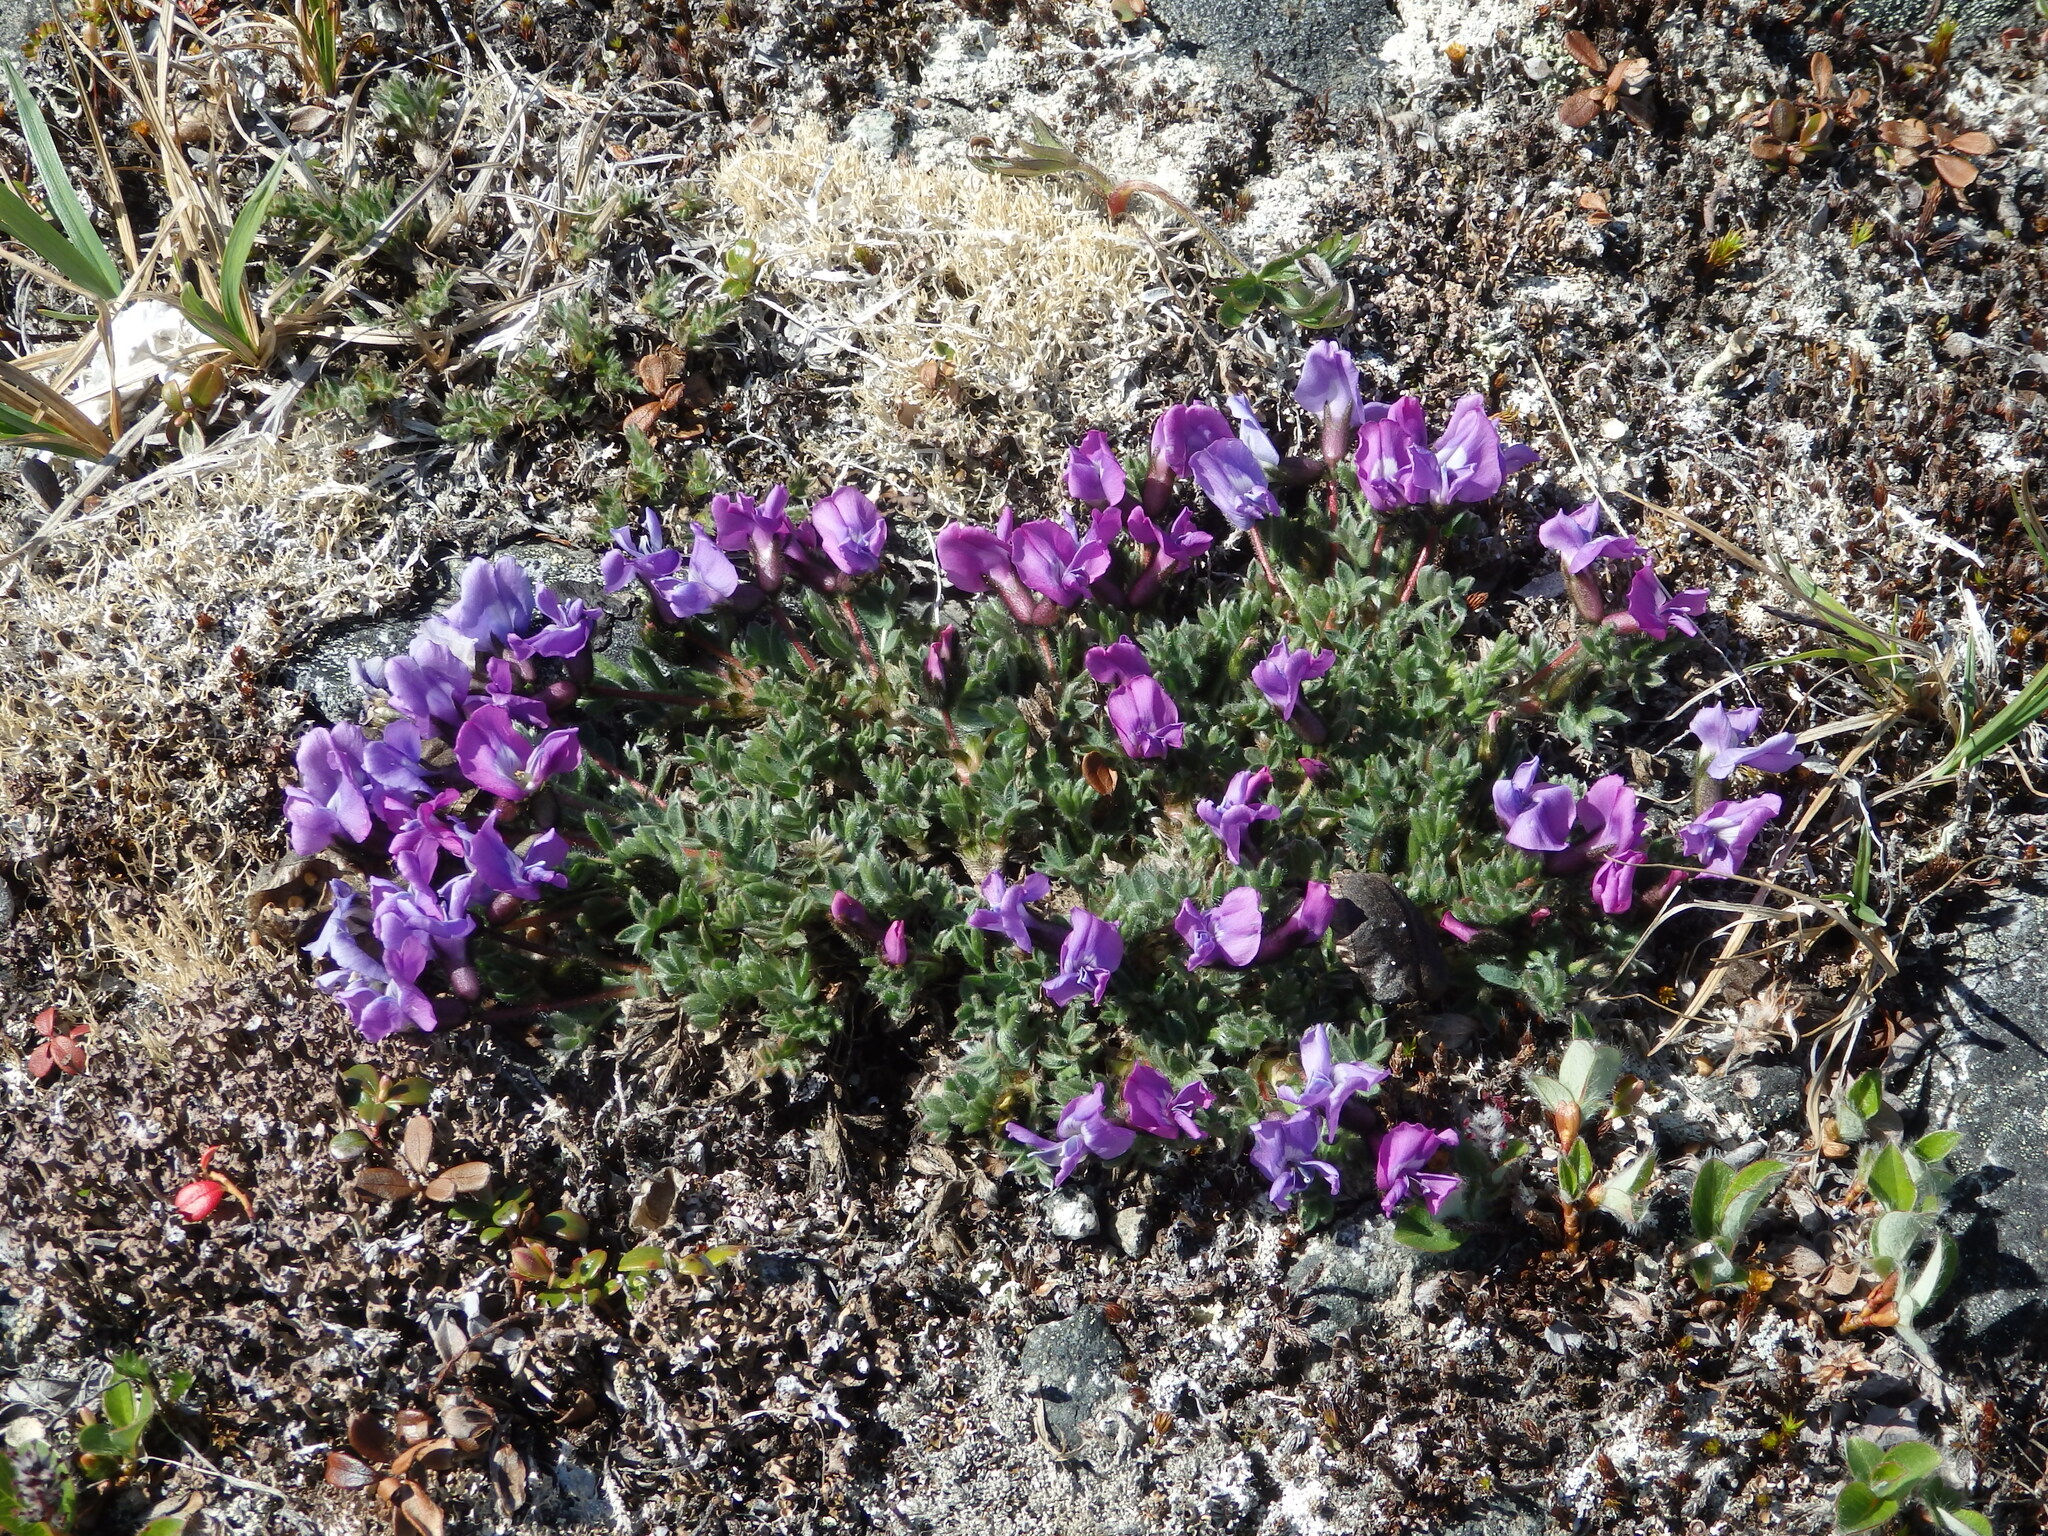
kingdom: Plantae
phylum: Tracheophyta
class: Magnoliopsida
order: Fabales
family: Fabaceae
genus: Oxytropis
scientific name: Oxytropis czukotica
